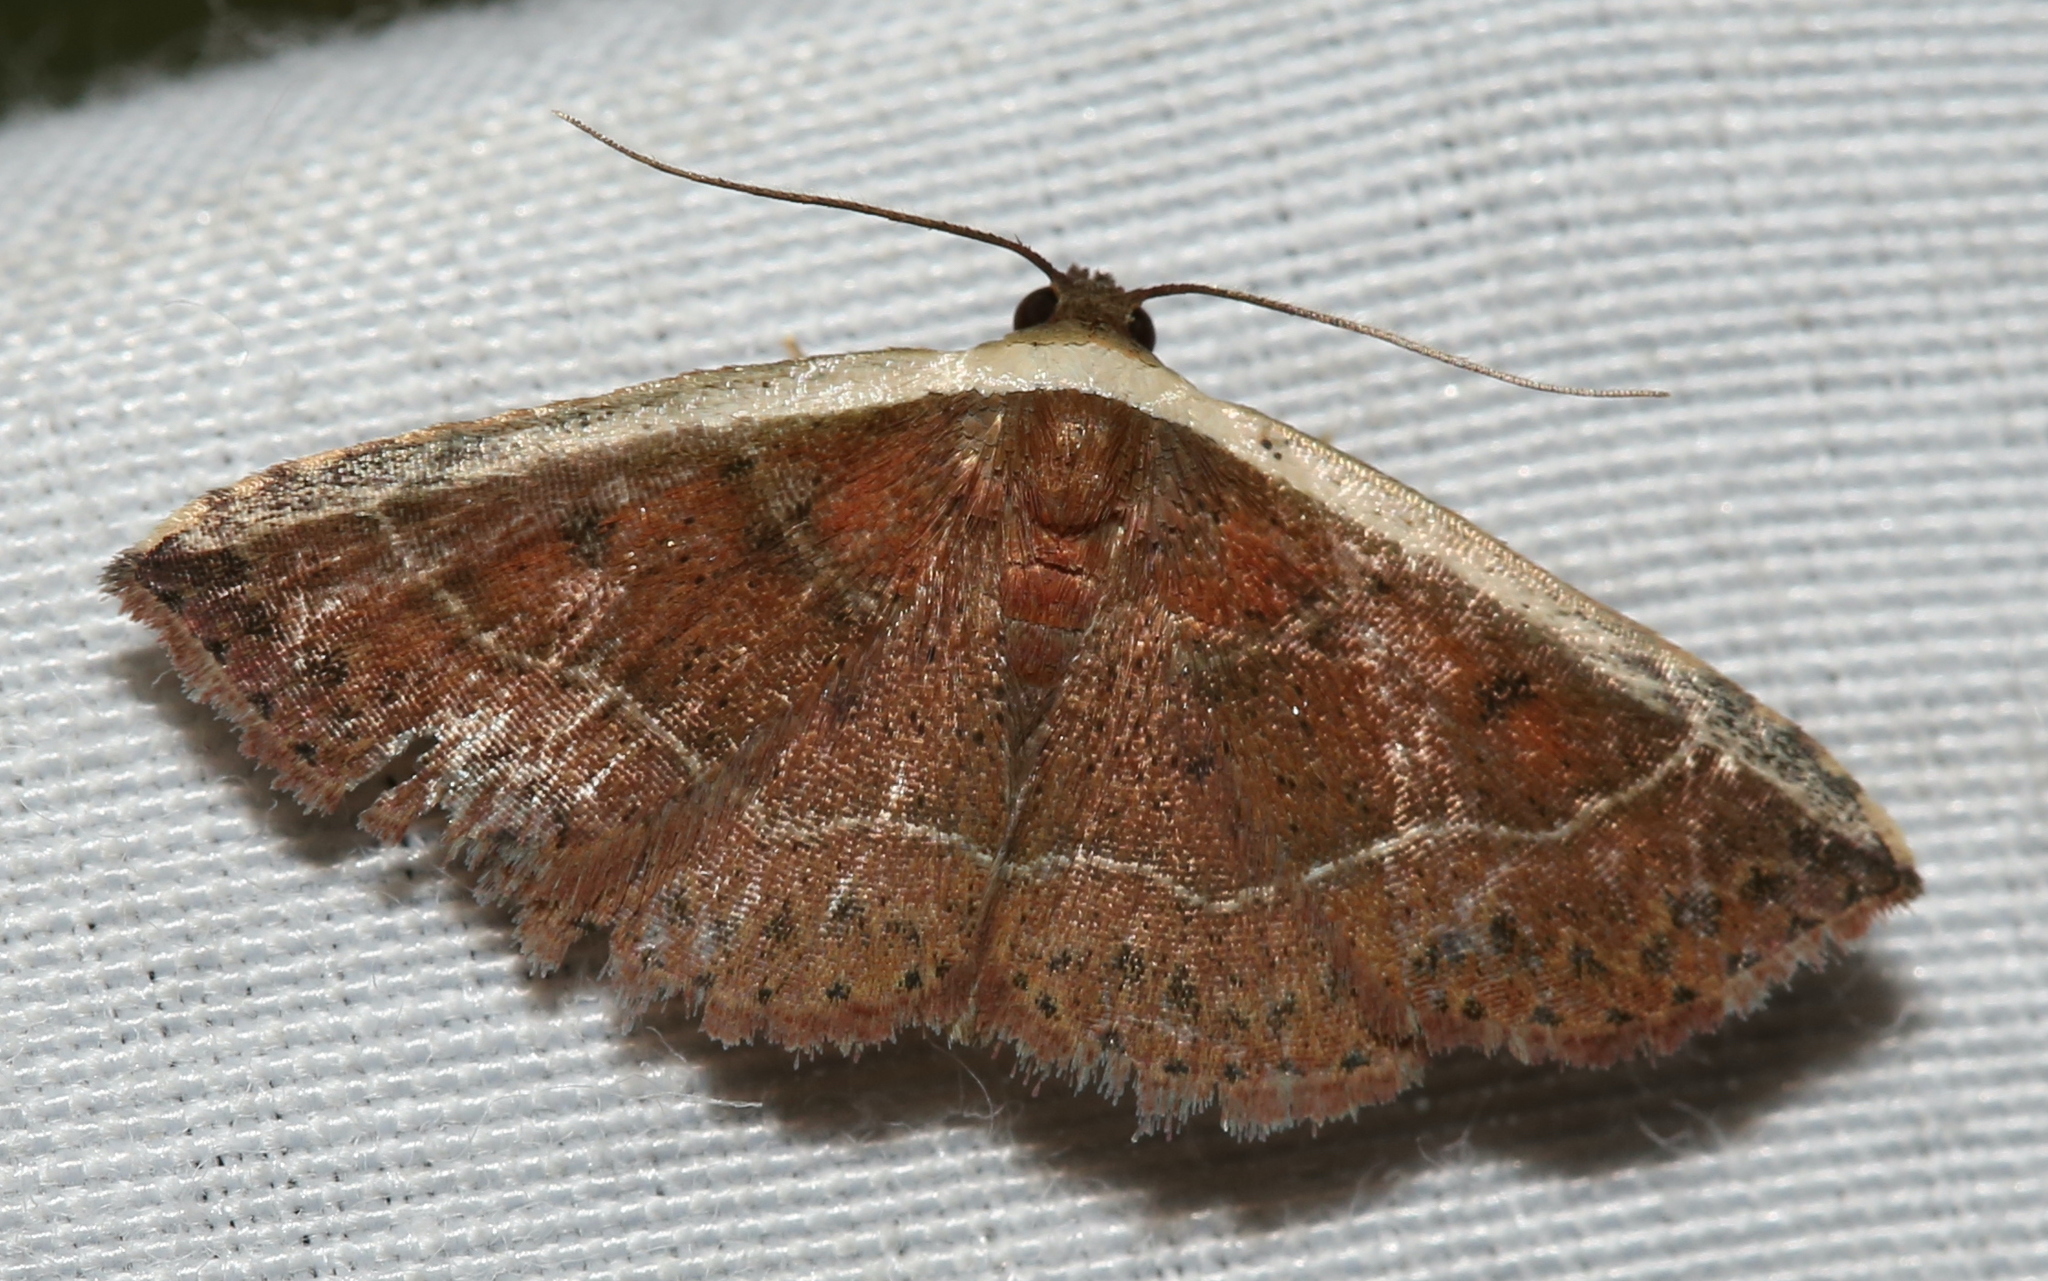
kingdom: Animalia
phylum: Arthropoda
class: Insecta
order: Lepidoptera
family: Noctuidae
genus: Ozarba
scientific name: Ozarba albocostaliata
